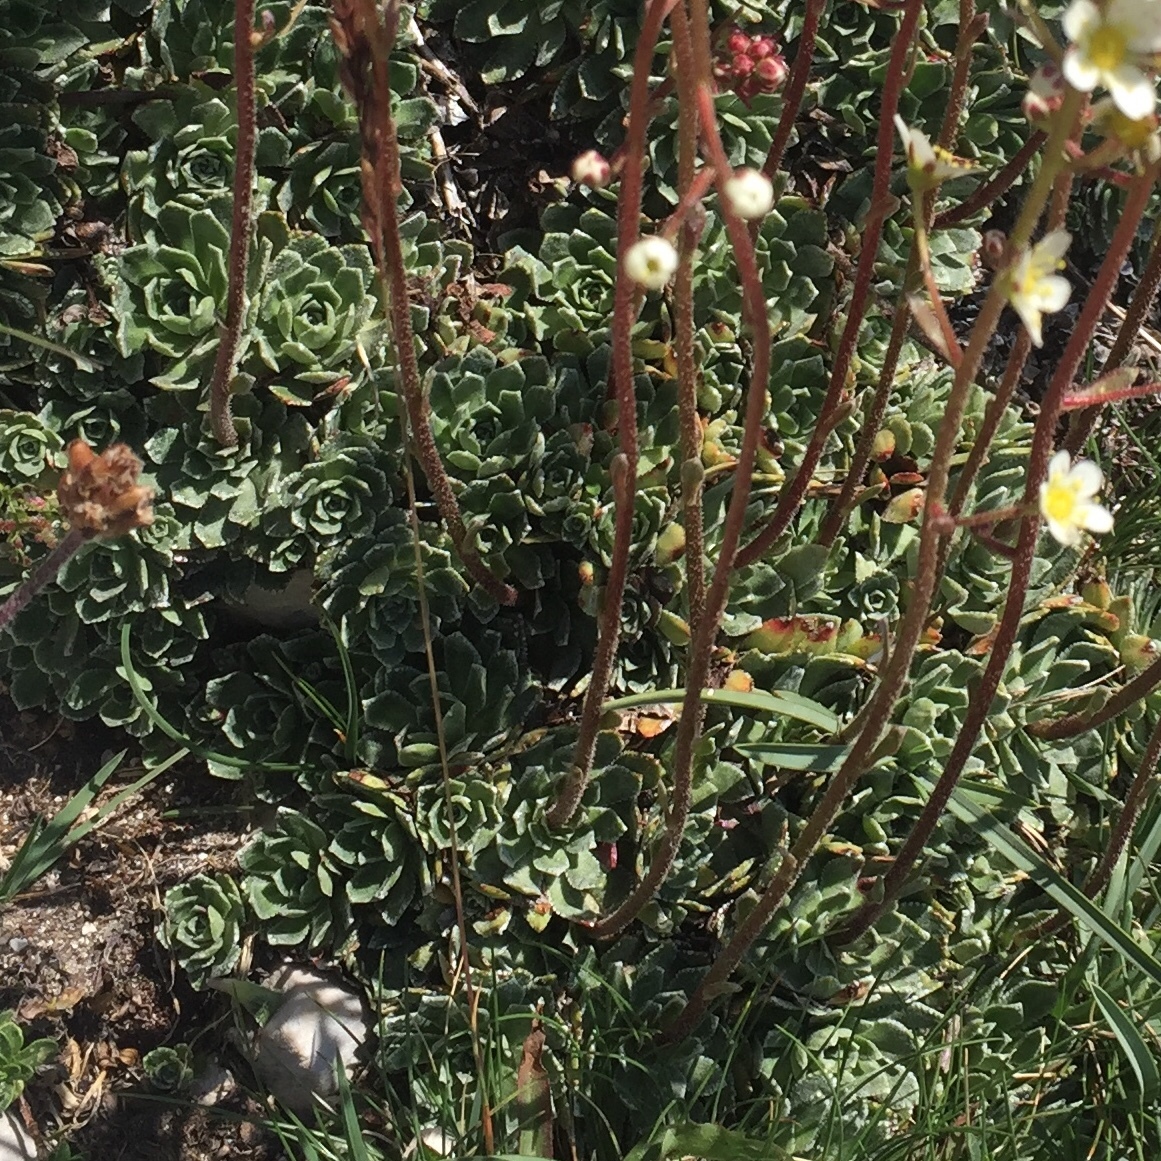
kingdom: Plantae
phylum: Tracheophyta
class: Magnoliopsida
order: Saxifragales
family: Saxifragaceae
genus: Saxifraga
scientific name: Saxifraga paniculata
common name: Livelong saxifrage
